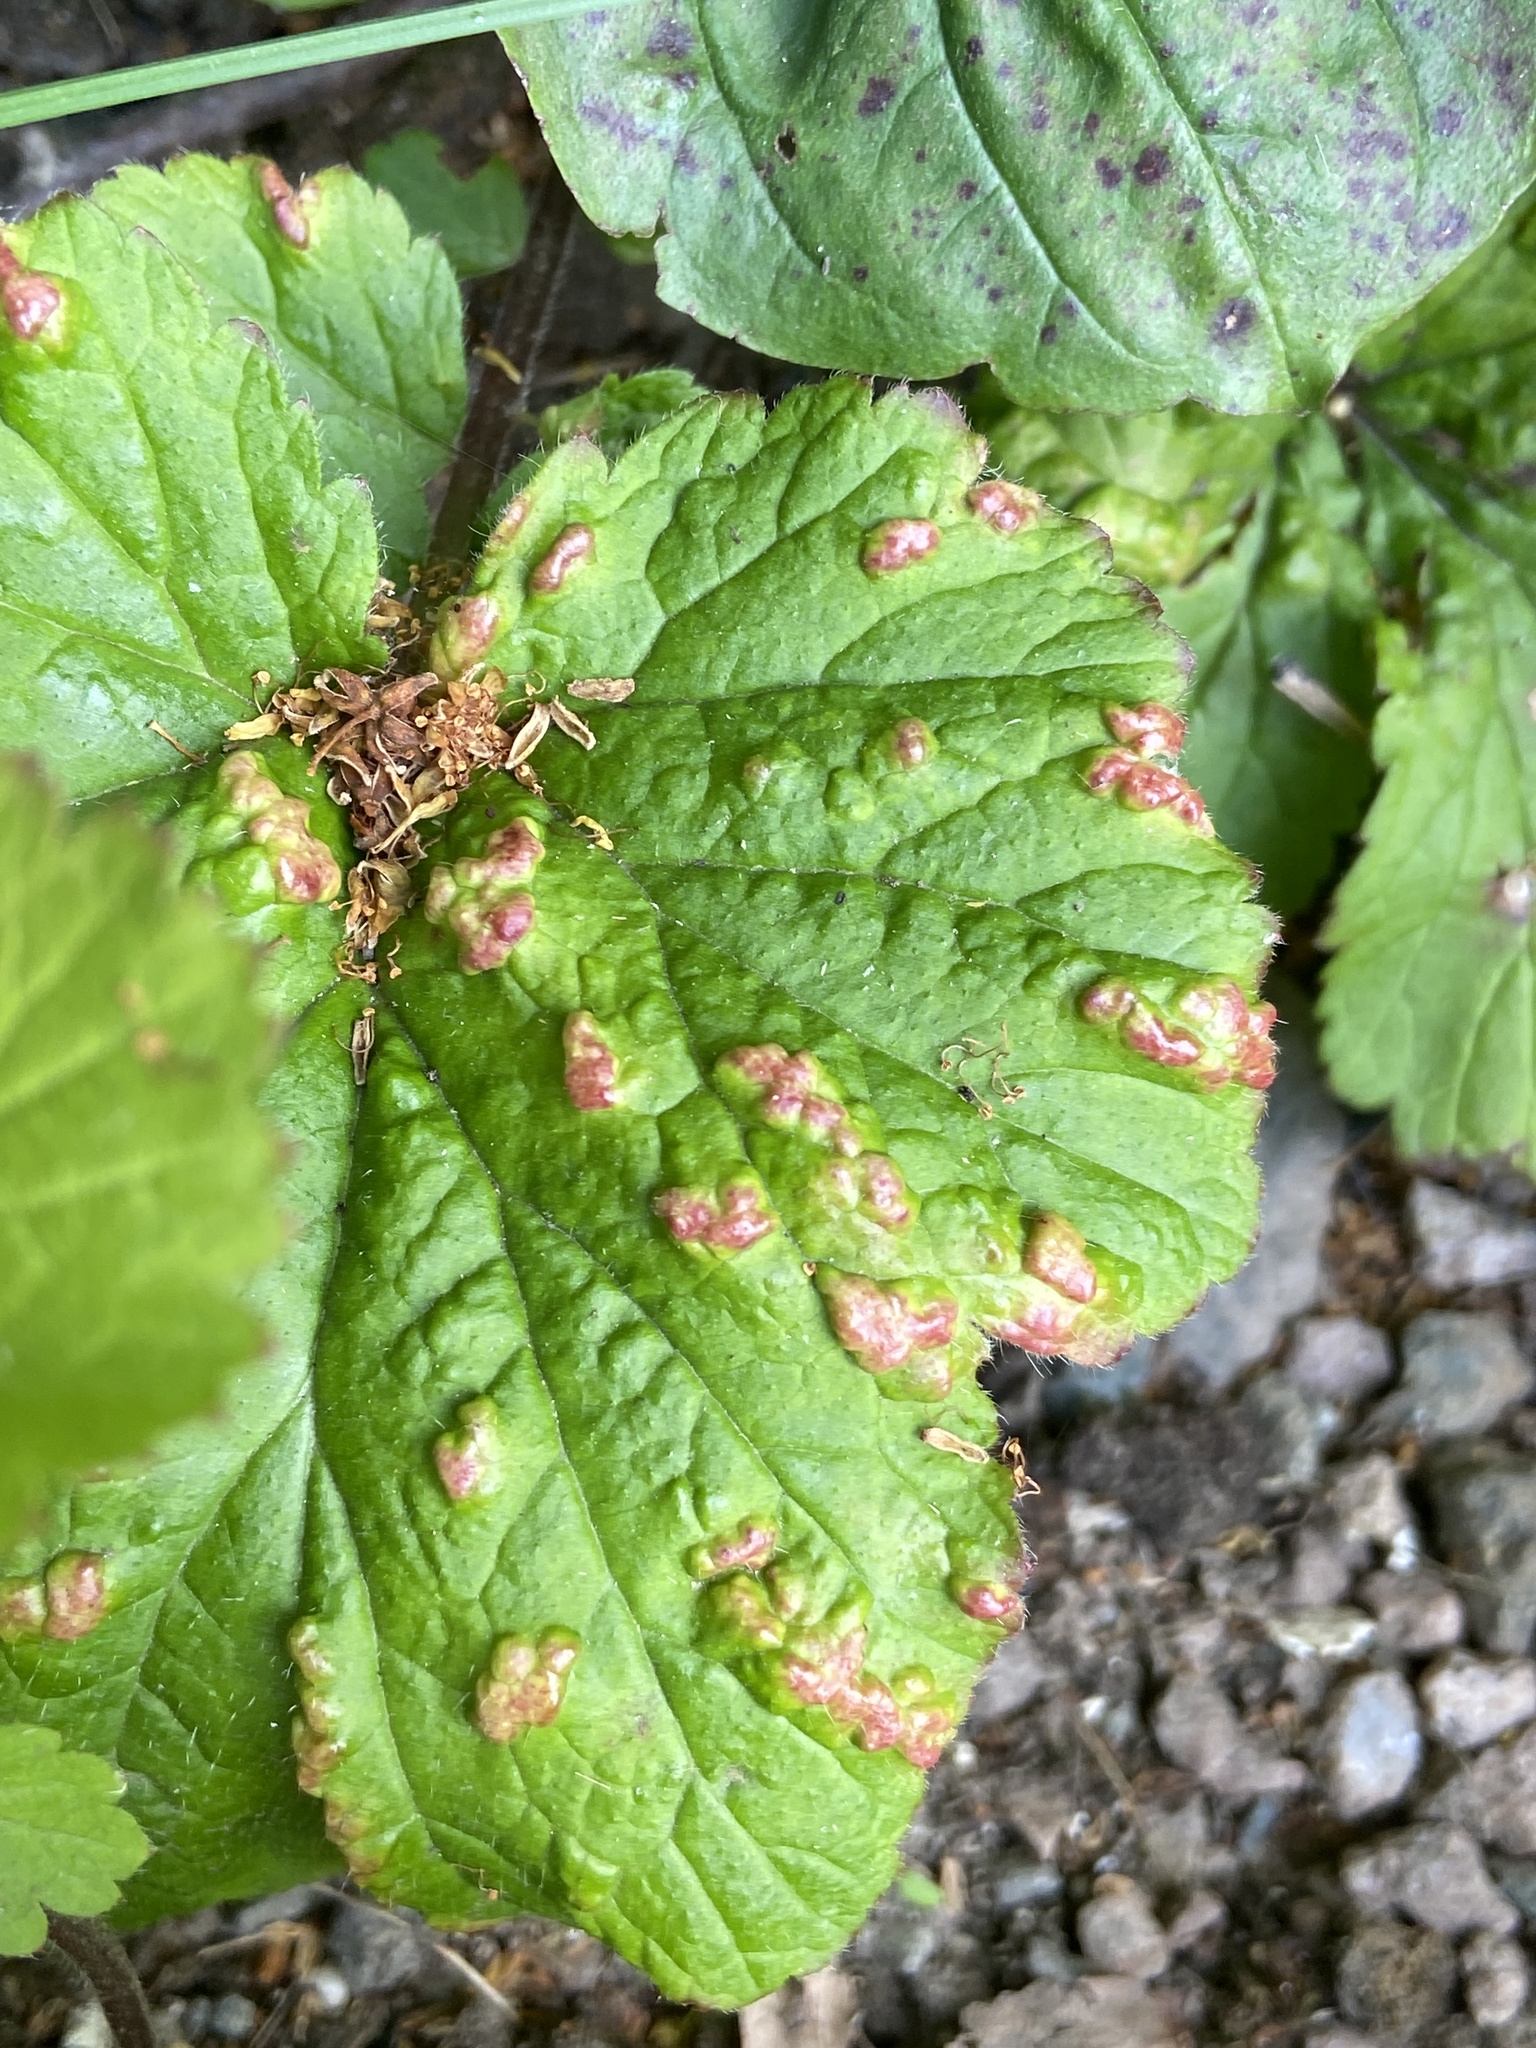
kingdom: Animalia
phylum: Arthropoda
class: Arachnida
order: Trombidiformes
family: Eriophyidae
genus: Cecidophyes
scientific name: Cecidophyes nudus
